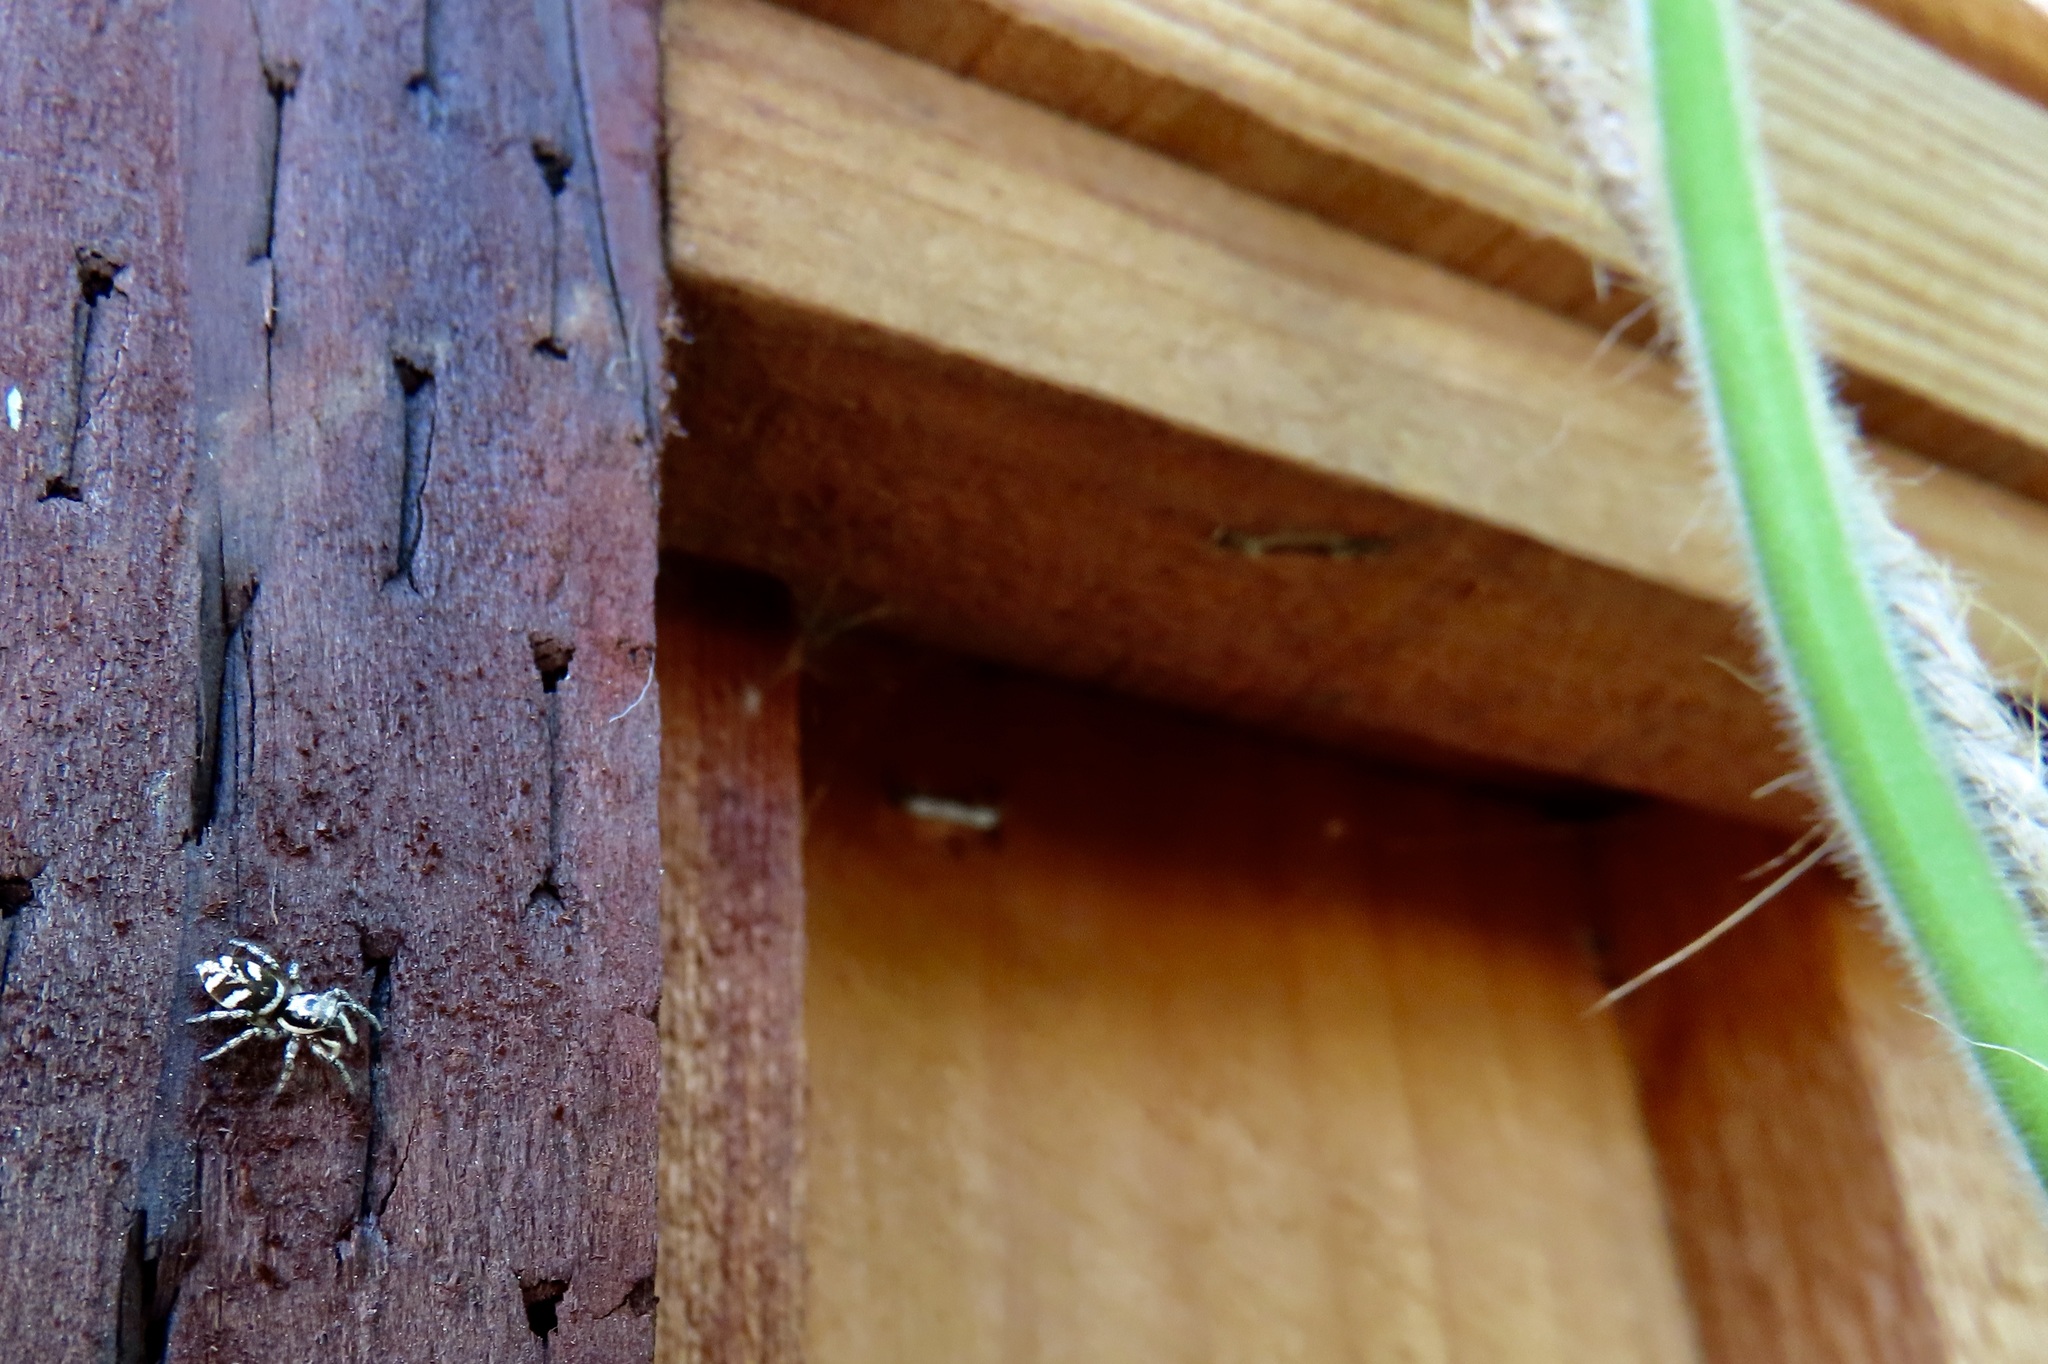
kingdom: Animalia
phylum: Arthropoda
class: Arachnida
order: Araneae
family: Salticidae
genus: Salticus
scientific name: Salticus scenicus
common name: Zebra jumper
